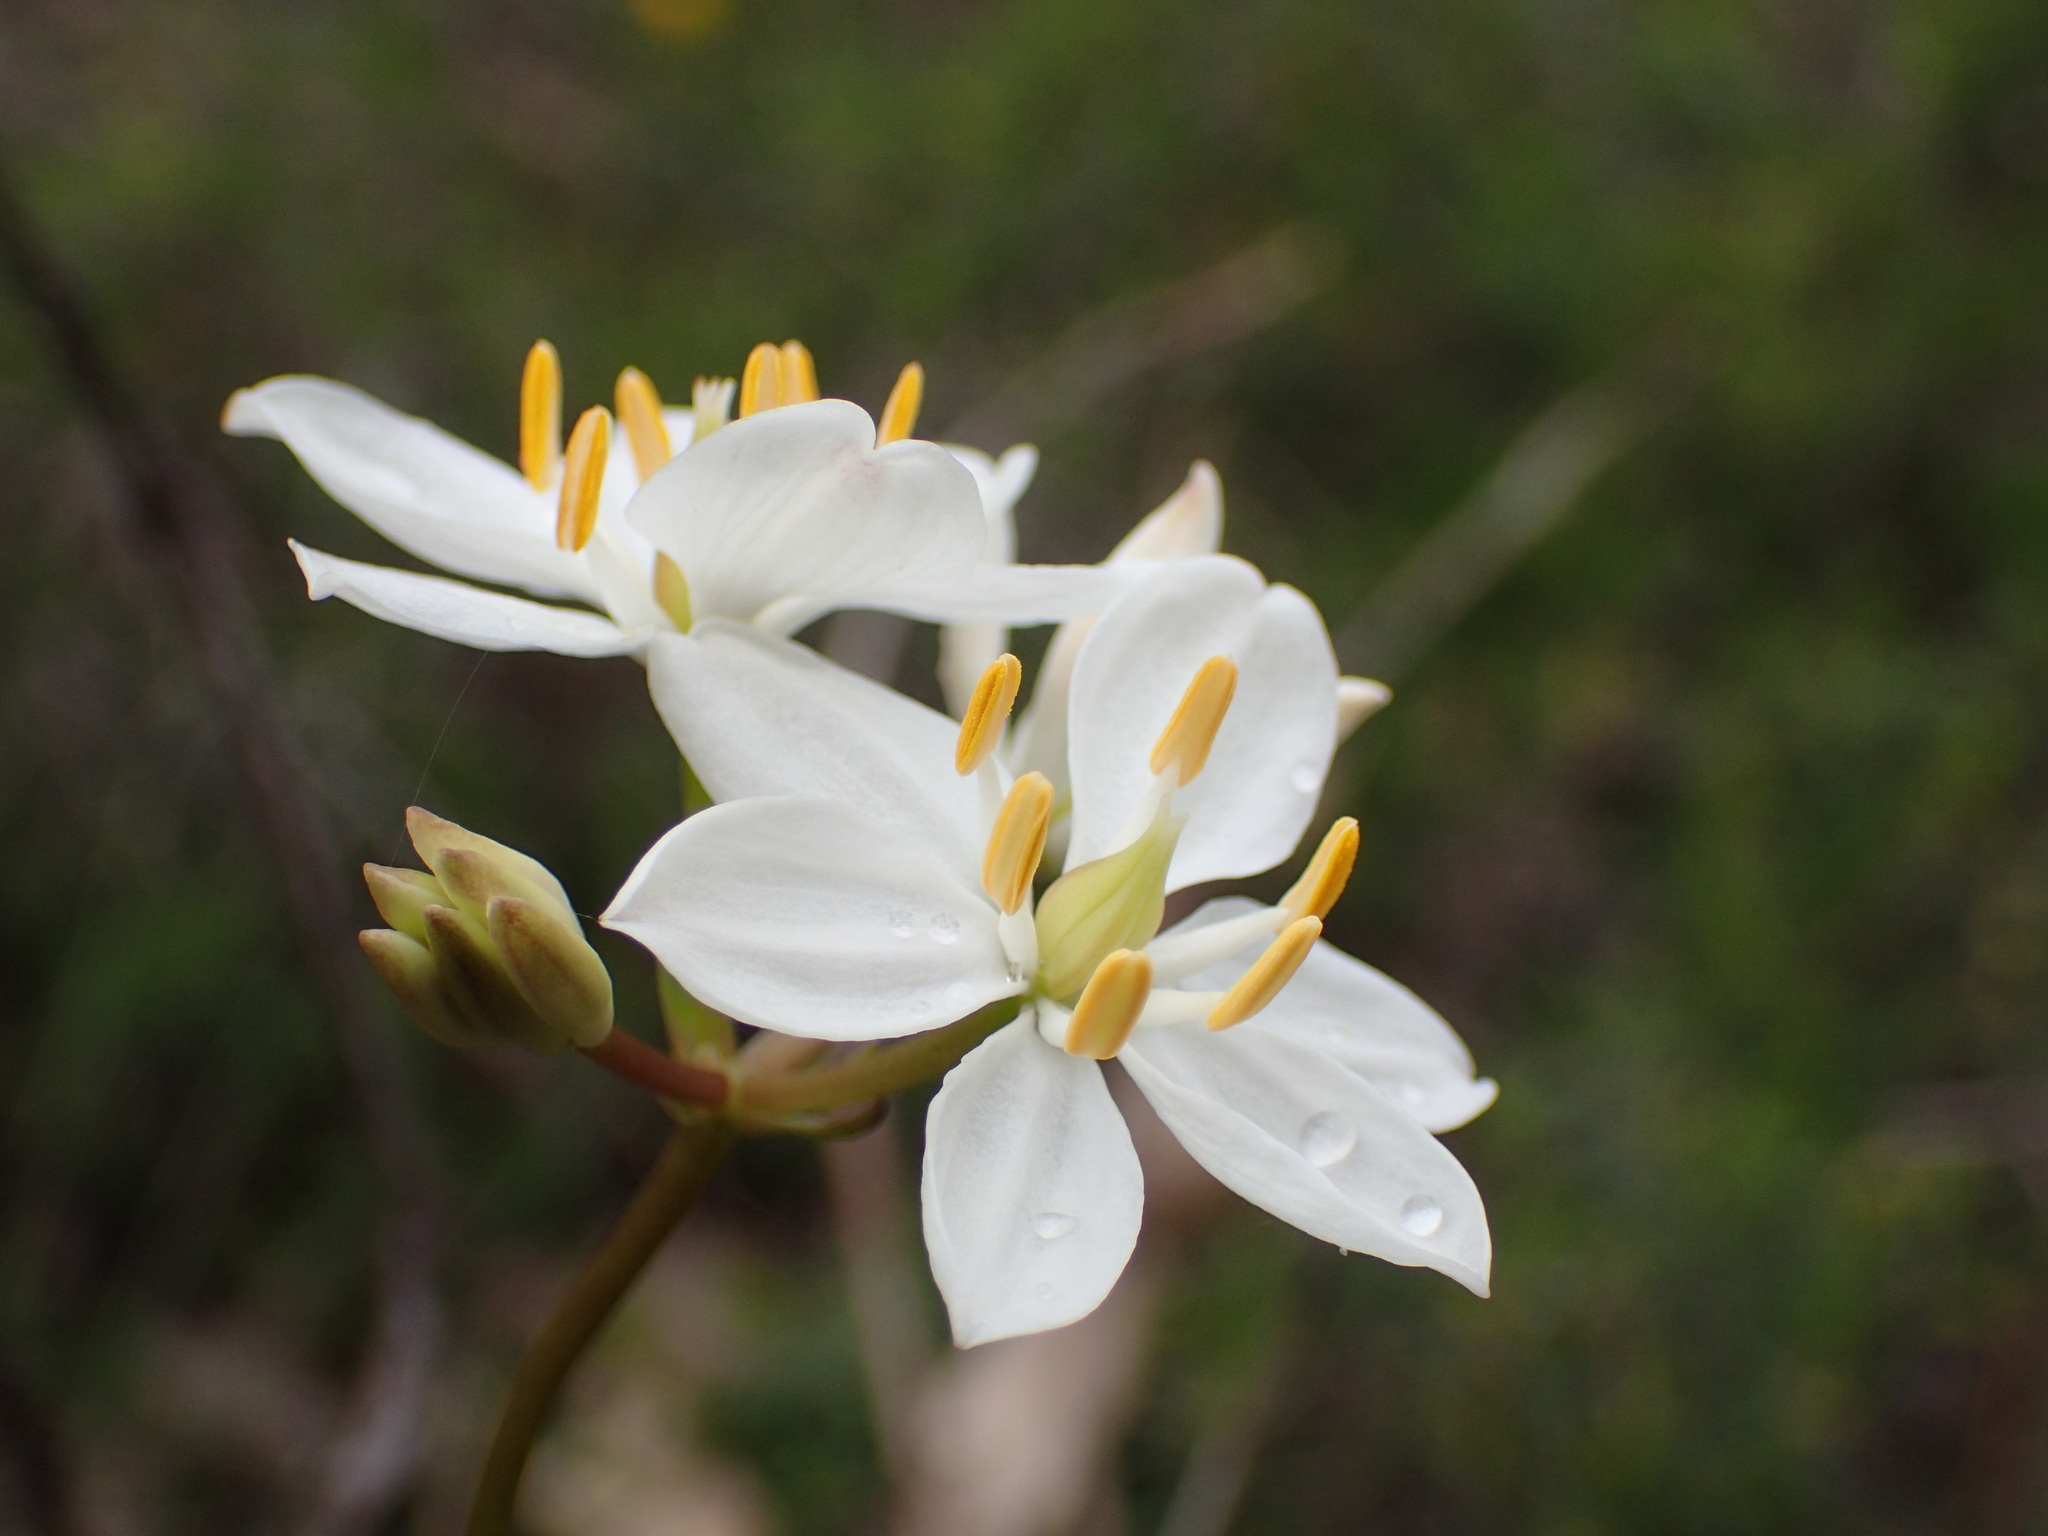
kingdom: Plantae
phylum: Tracheophyta
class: Liliopsida
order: Liliales
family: Colchicaceae
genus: Burchardia
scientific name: Burchardia congesta
